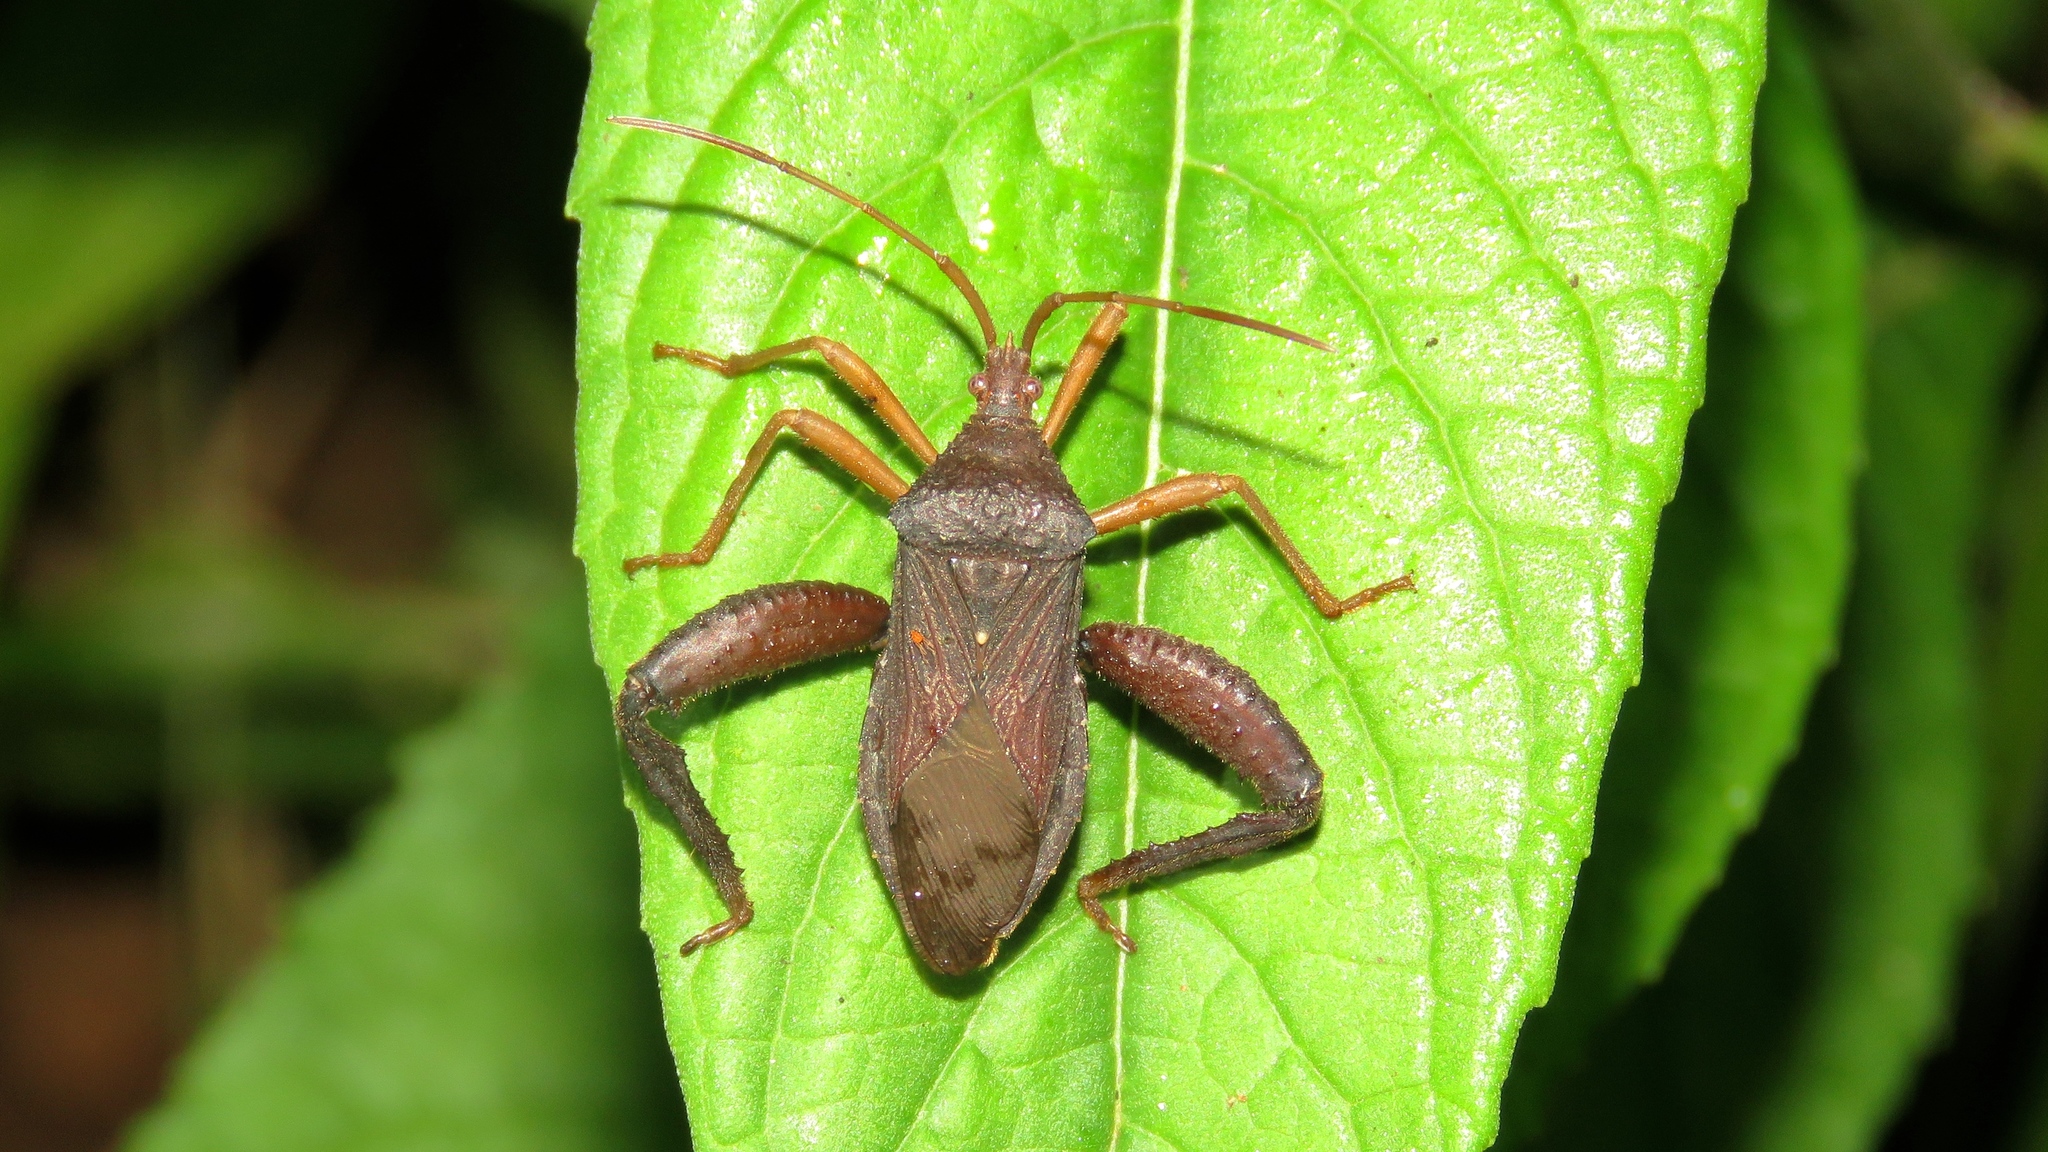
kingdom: Animalia
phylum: Arthropoda
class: Insecta
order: Hemiptera
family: Coreidae
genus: Acanthocephala
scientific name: Acanthocephala bicoloripes
